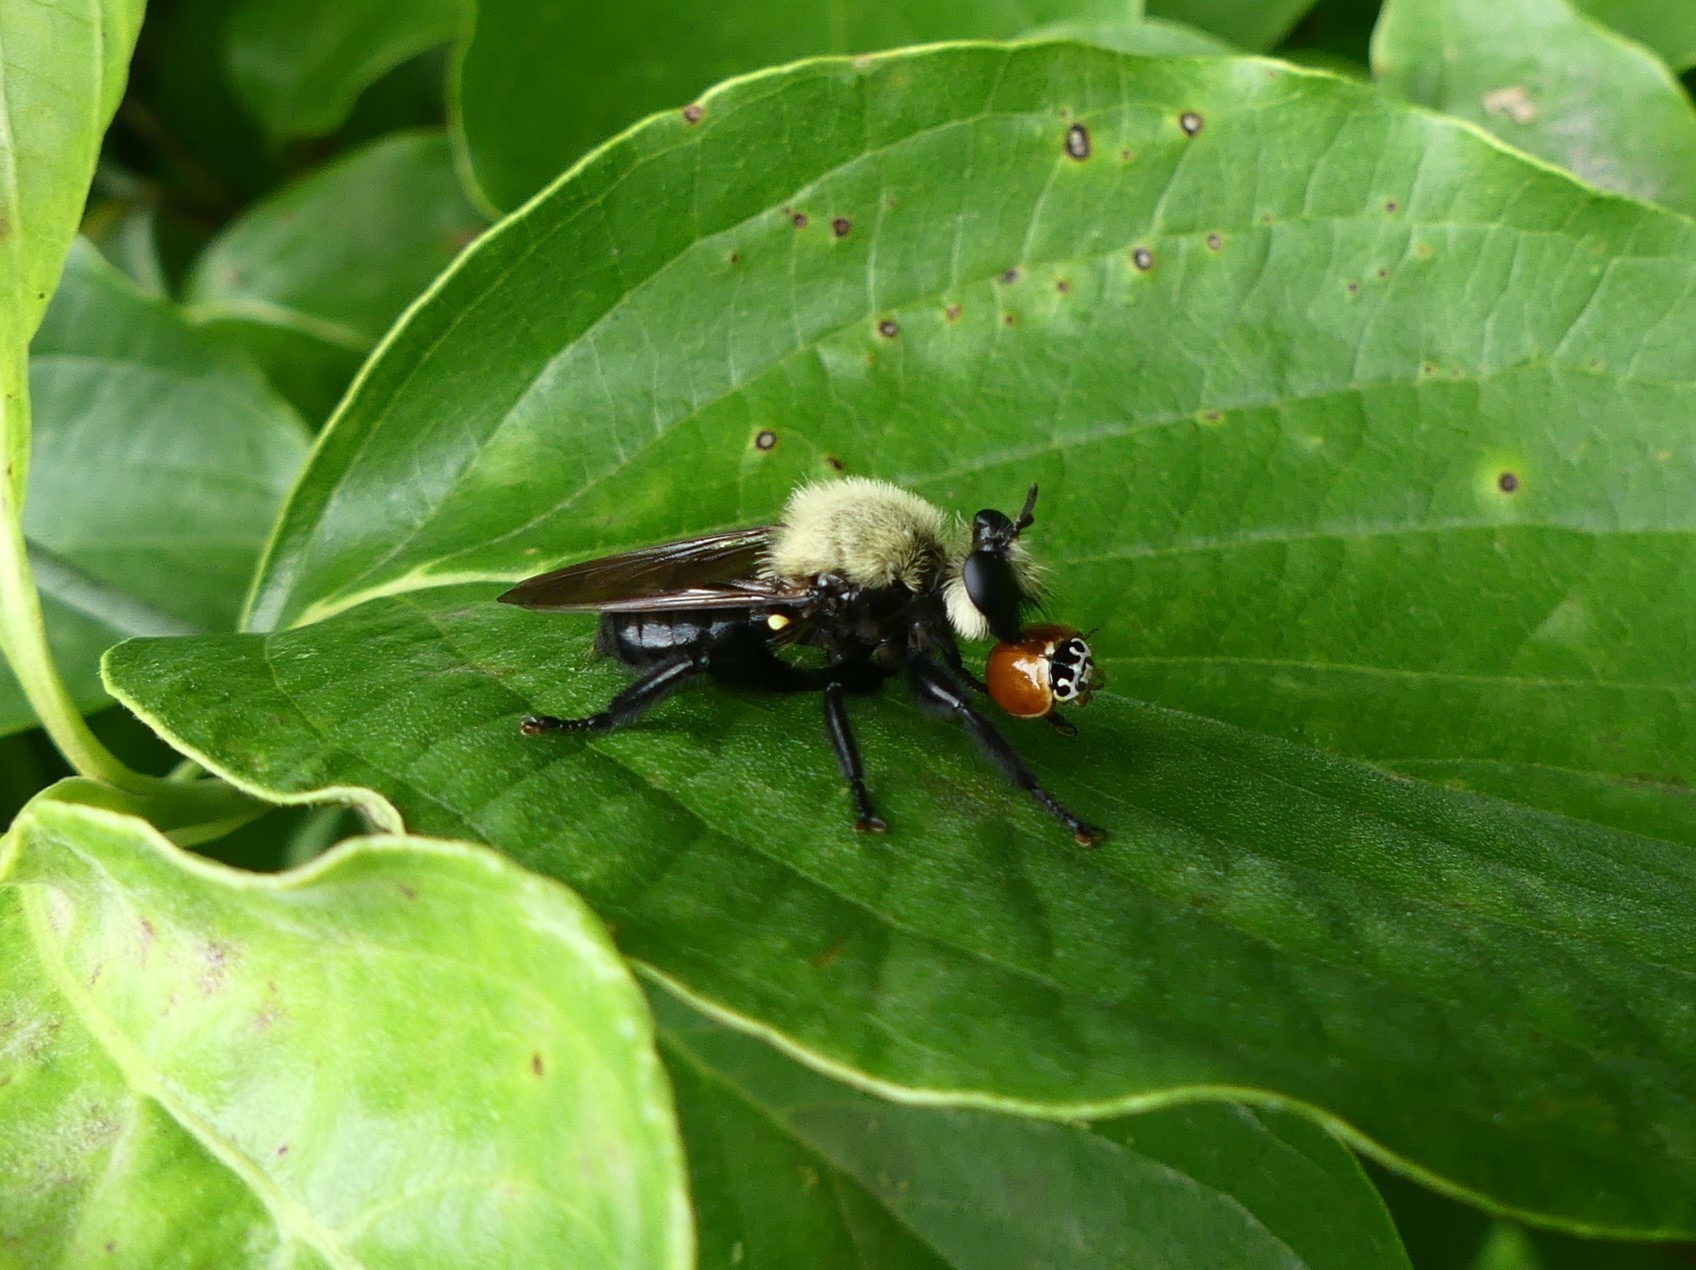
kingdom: Animalia
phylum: Arthropoda
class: Insecta
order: Diptera
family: Asilidae
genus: Laphria
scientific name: Laphria virginica
